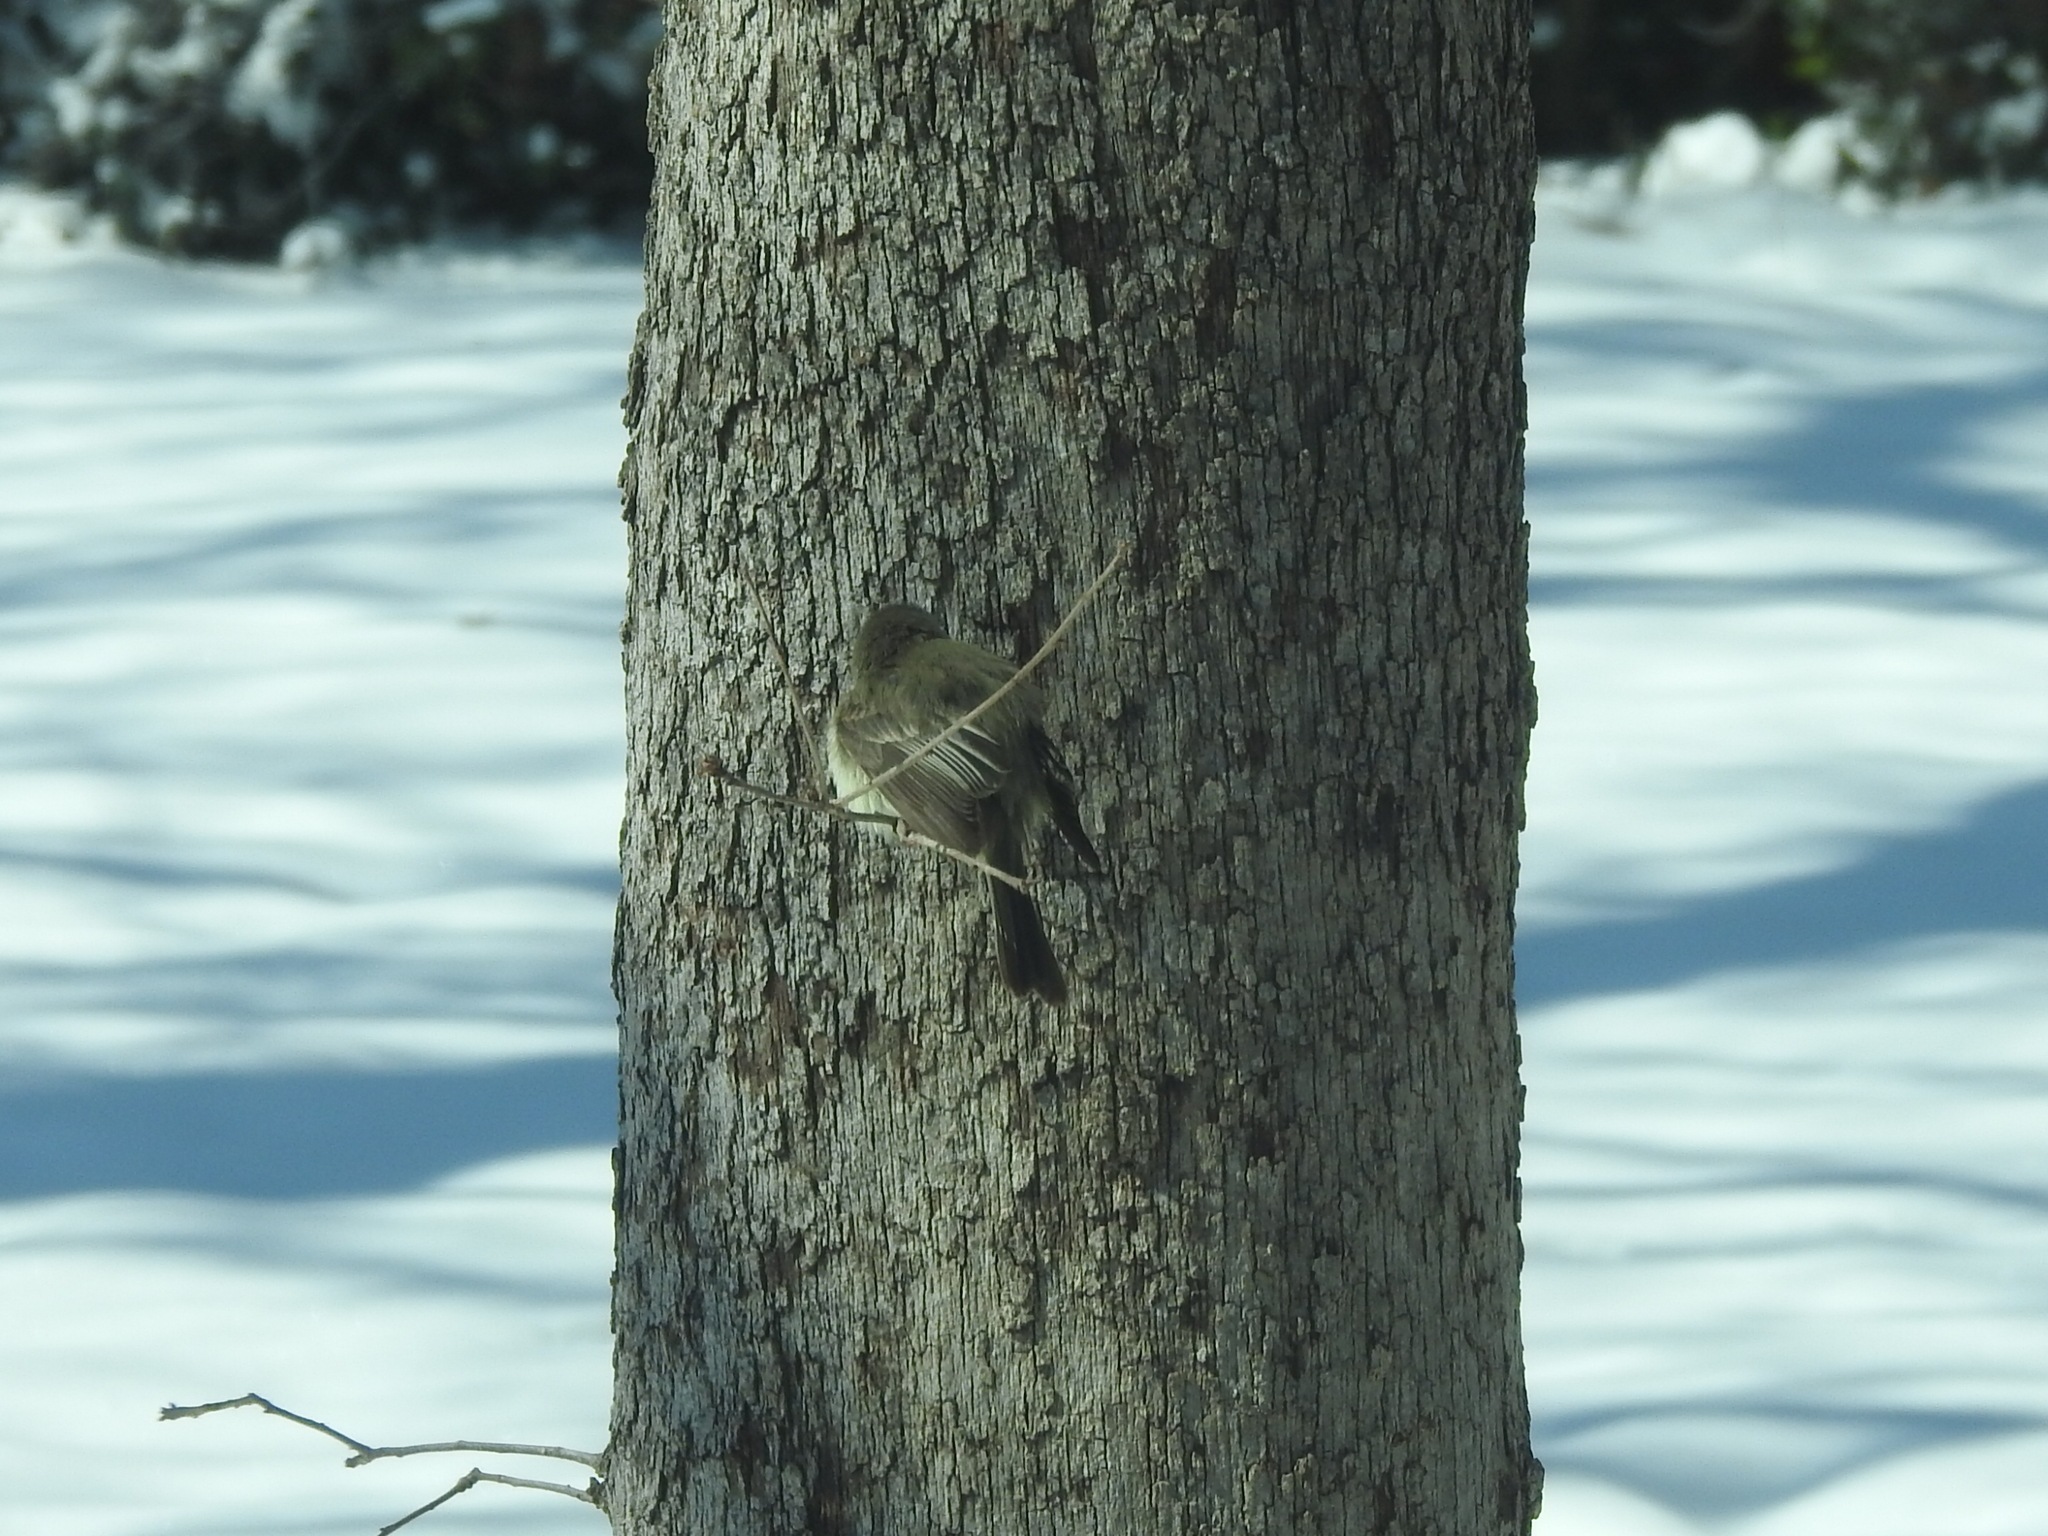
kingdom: Animalia
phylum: Chordata
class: Aves
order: Passeriformes
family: Tyrannidae
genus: Sayornis
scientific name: Sayornis phoebe
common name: Eastern phoebe
